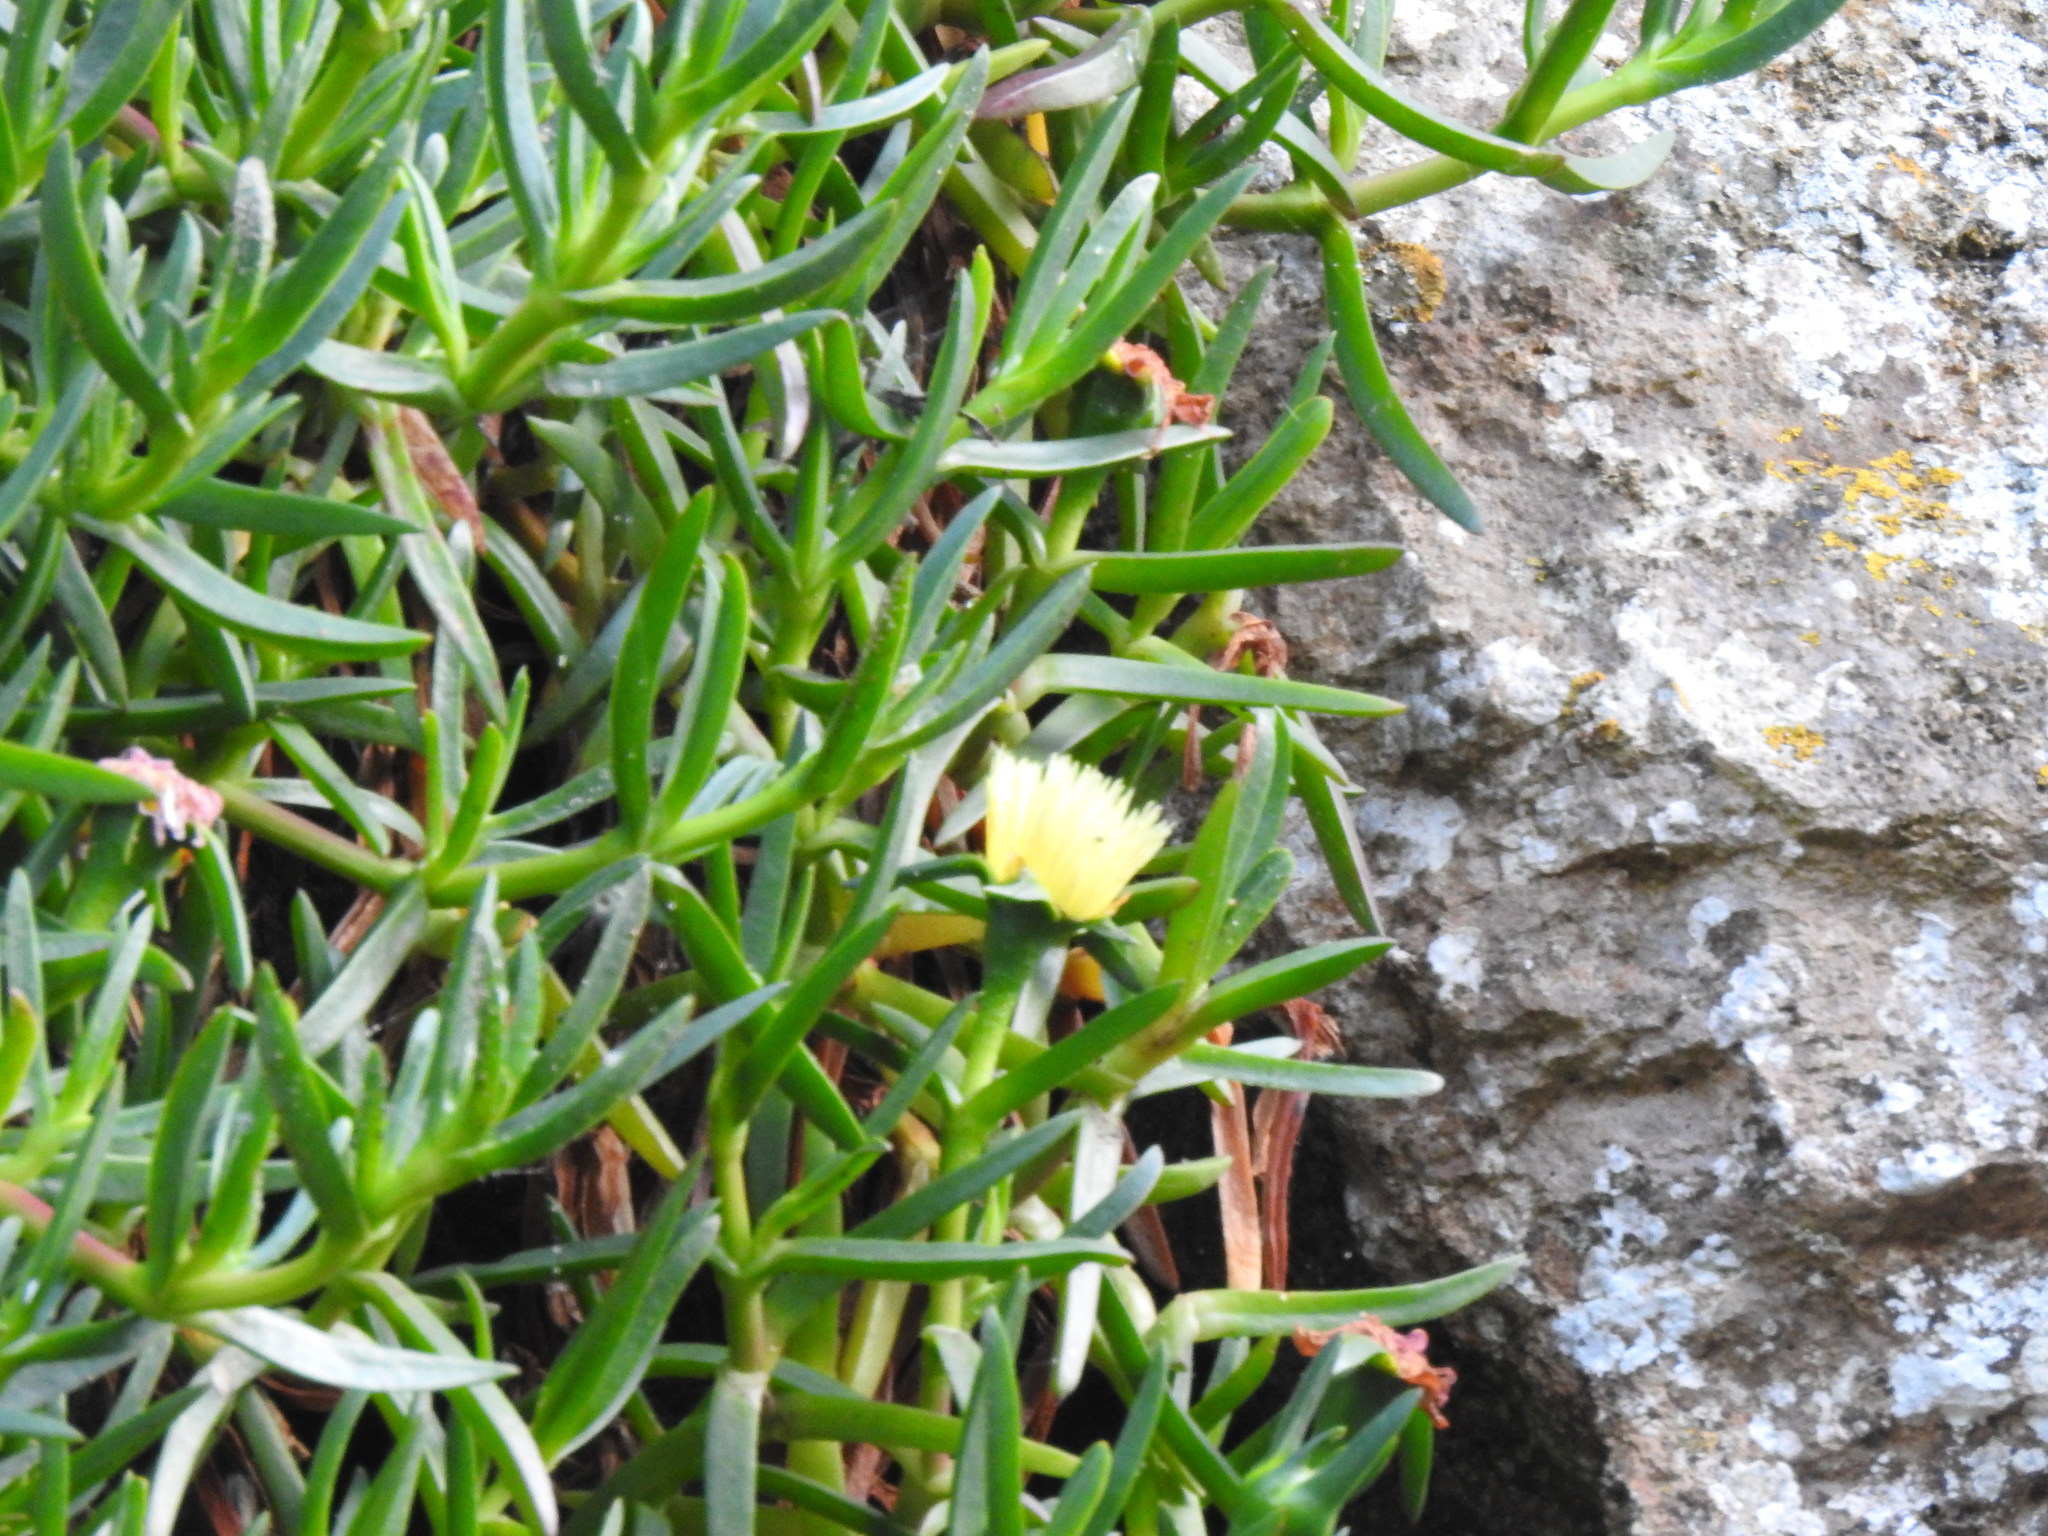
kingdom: Plantae
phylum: Tracheophyta
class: Magnoliopsida
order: Caryophyllales
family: Aizoaceae
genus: Carpobrotus
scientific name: Carpobrotus edulis
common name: Hottentot-fig
